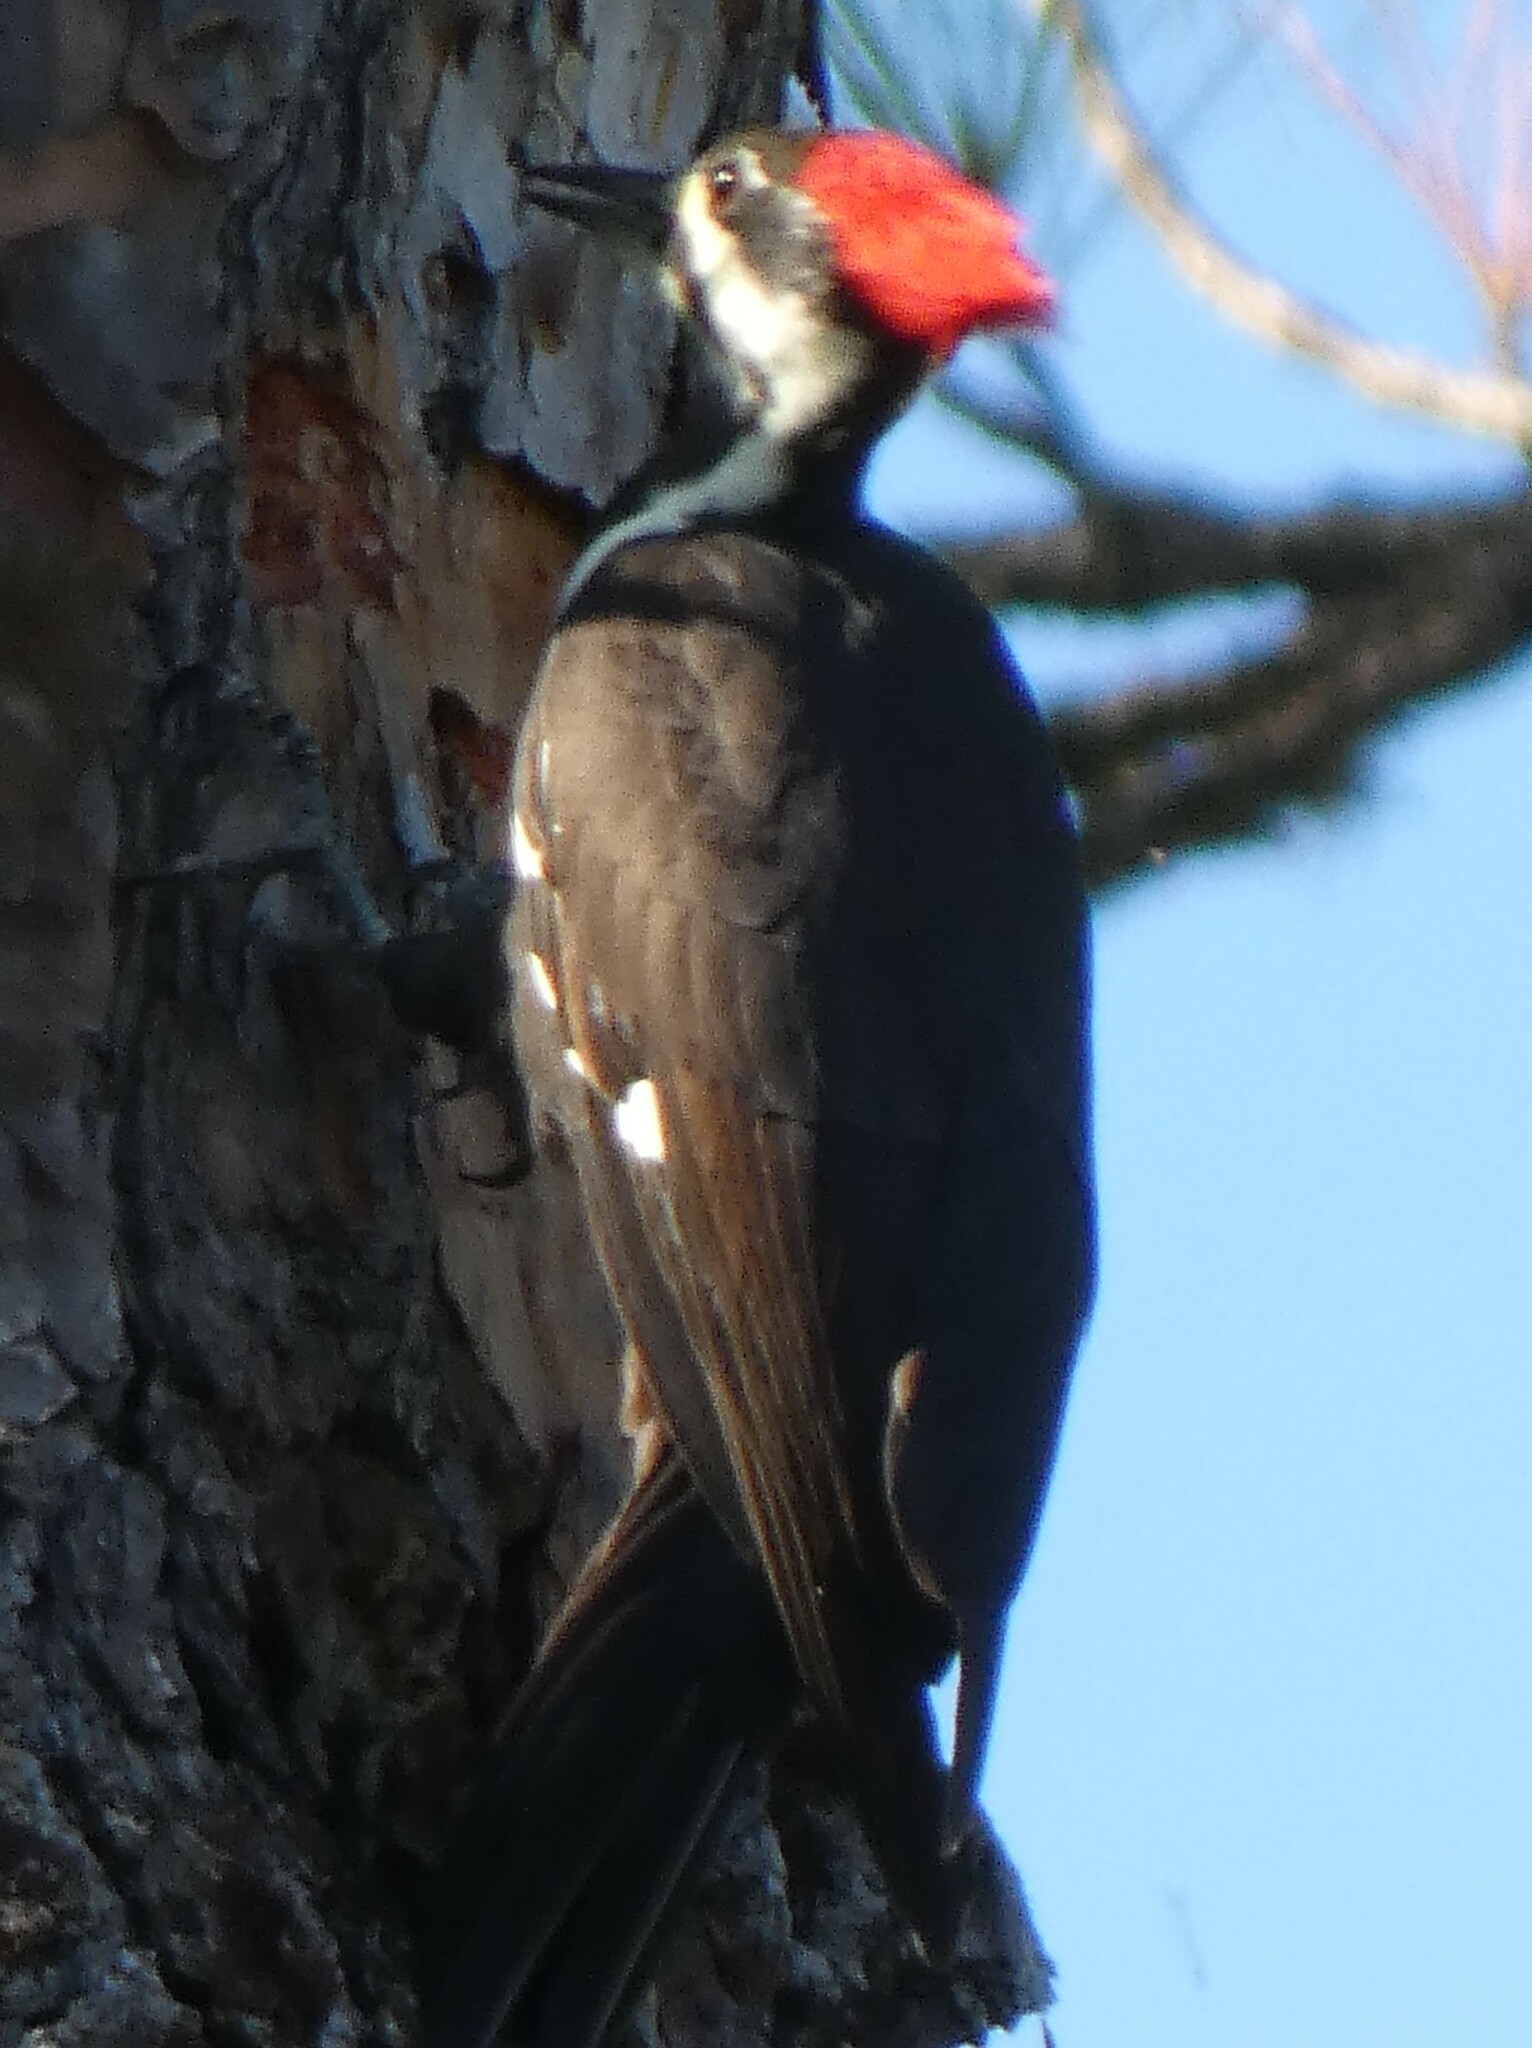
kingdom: Animalia
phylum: Chordata
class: Aves
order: Piciformes
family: Picidae
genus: Dryocopus
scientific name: Dryocopus pileatus
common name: Pileated woodpecker
